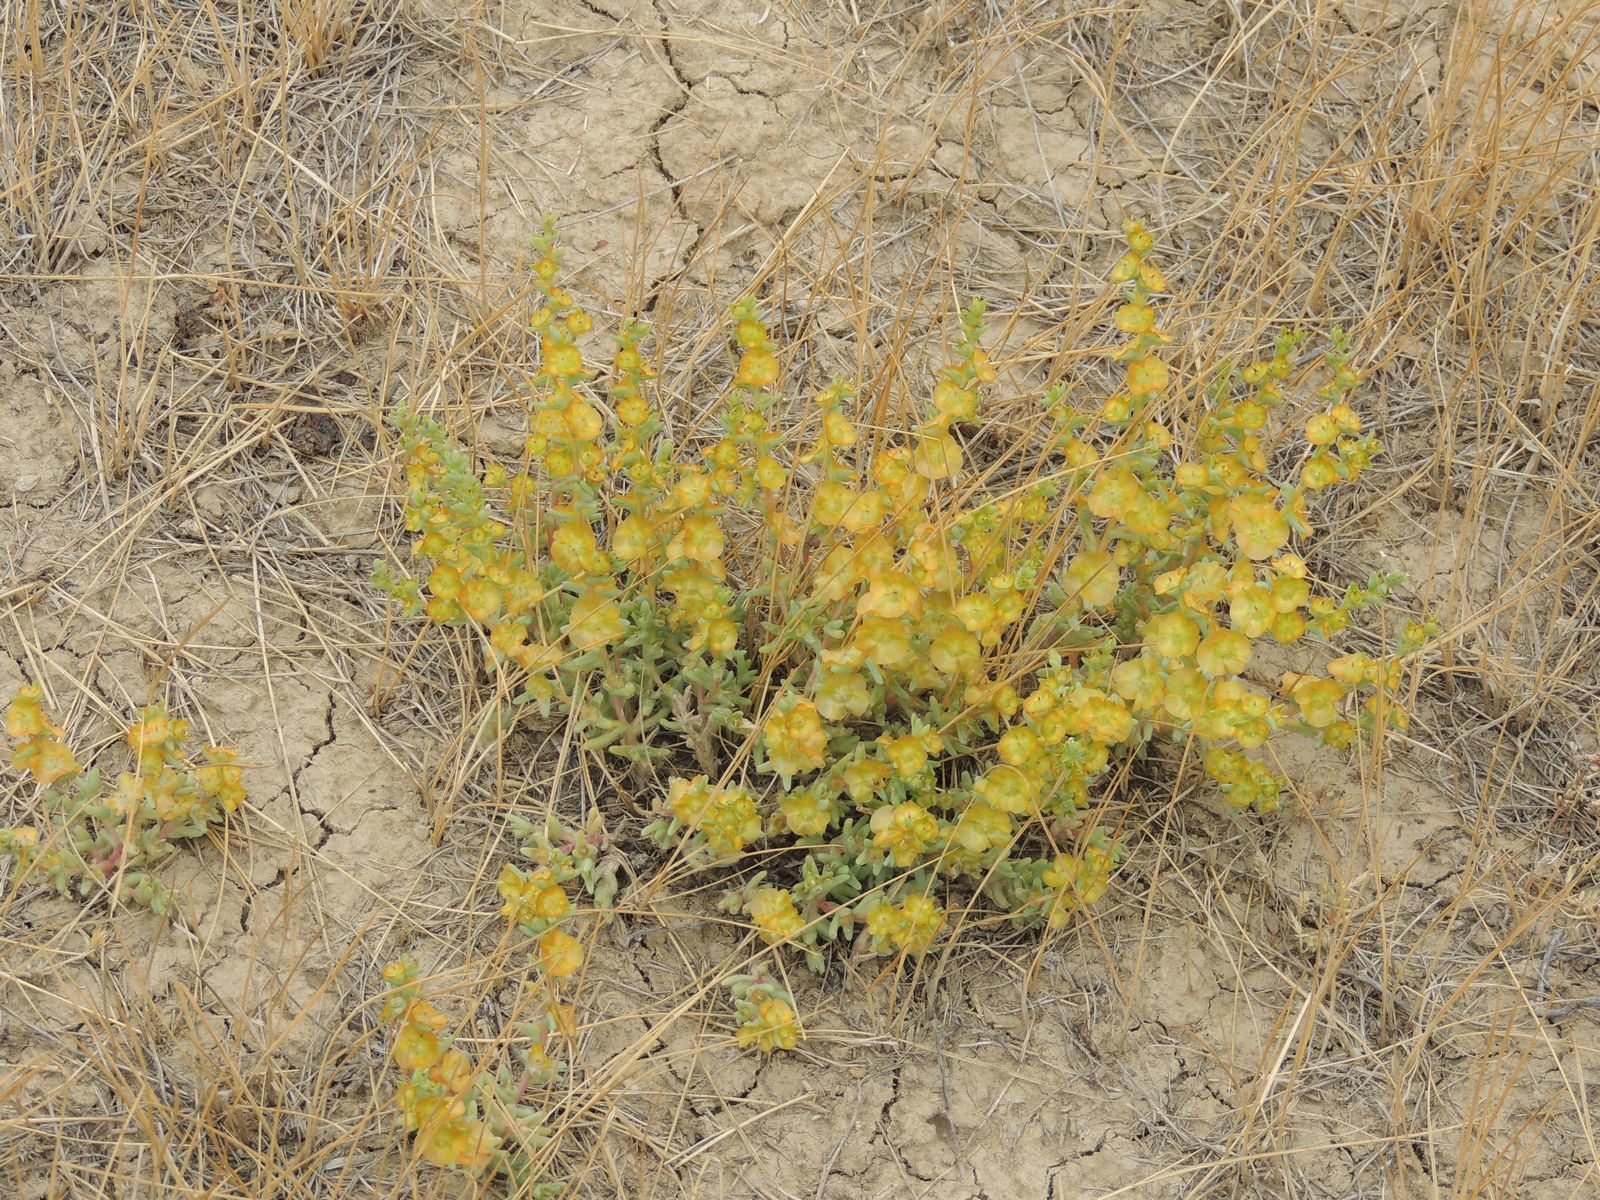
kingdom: Plantae
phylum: Tracheophyta
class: Magnoliopsida
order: Caryophyllales
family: Amaranthaceae
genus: Climacoptera
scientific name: Climacoptera crassa
